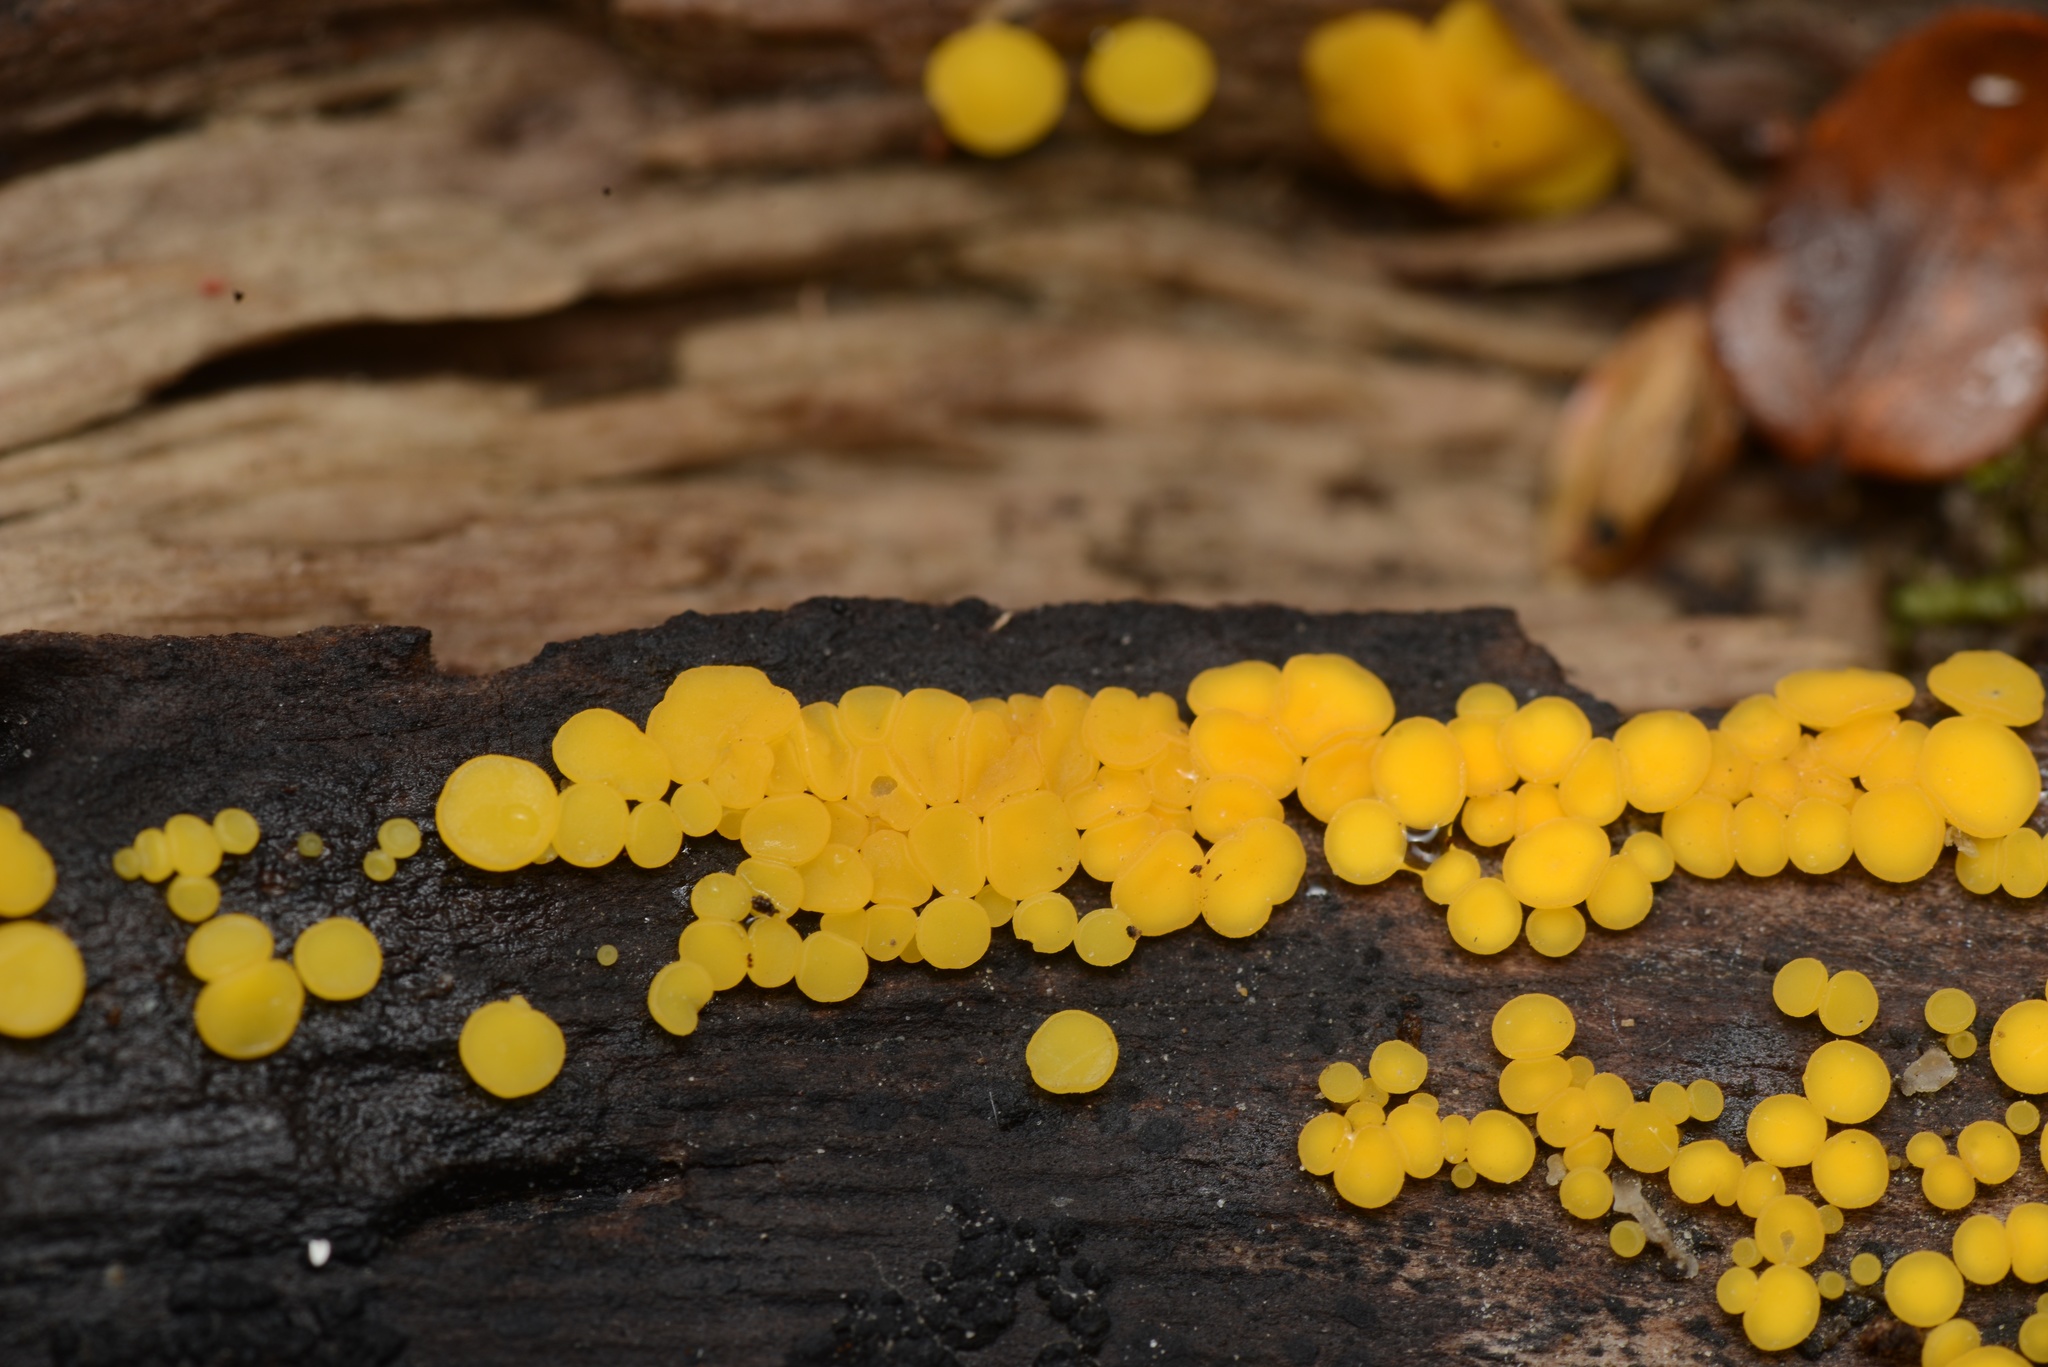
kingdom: Fungi
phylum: Ascomycota
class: Leotiomycetes
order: Helotiales
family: Pezizellaceae
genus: Calycina
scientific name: Calycina citrina
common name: Yellow fairy cups
